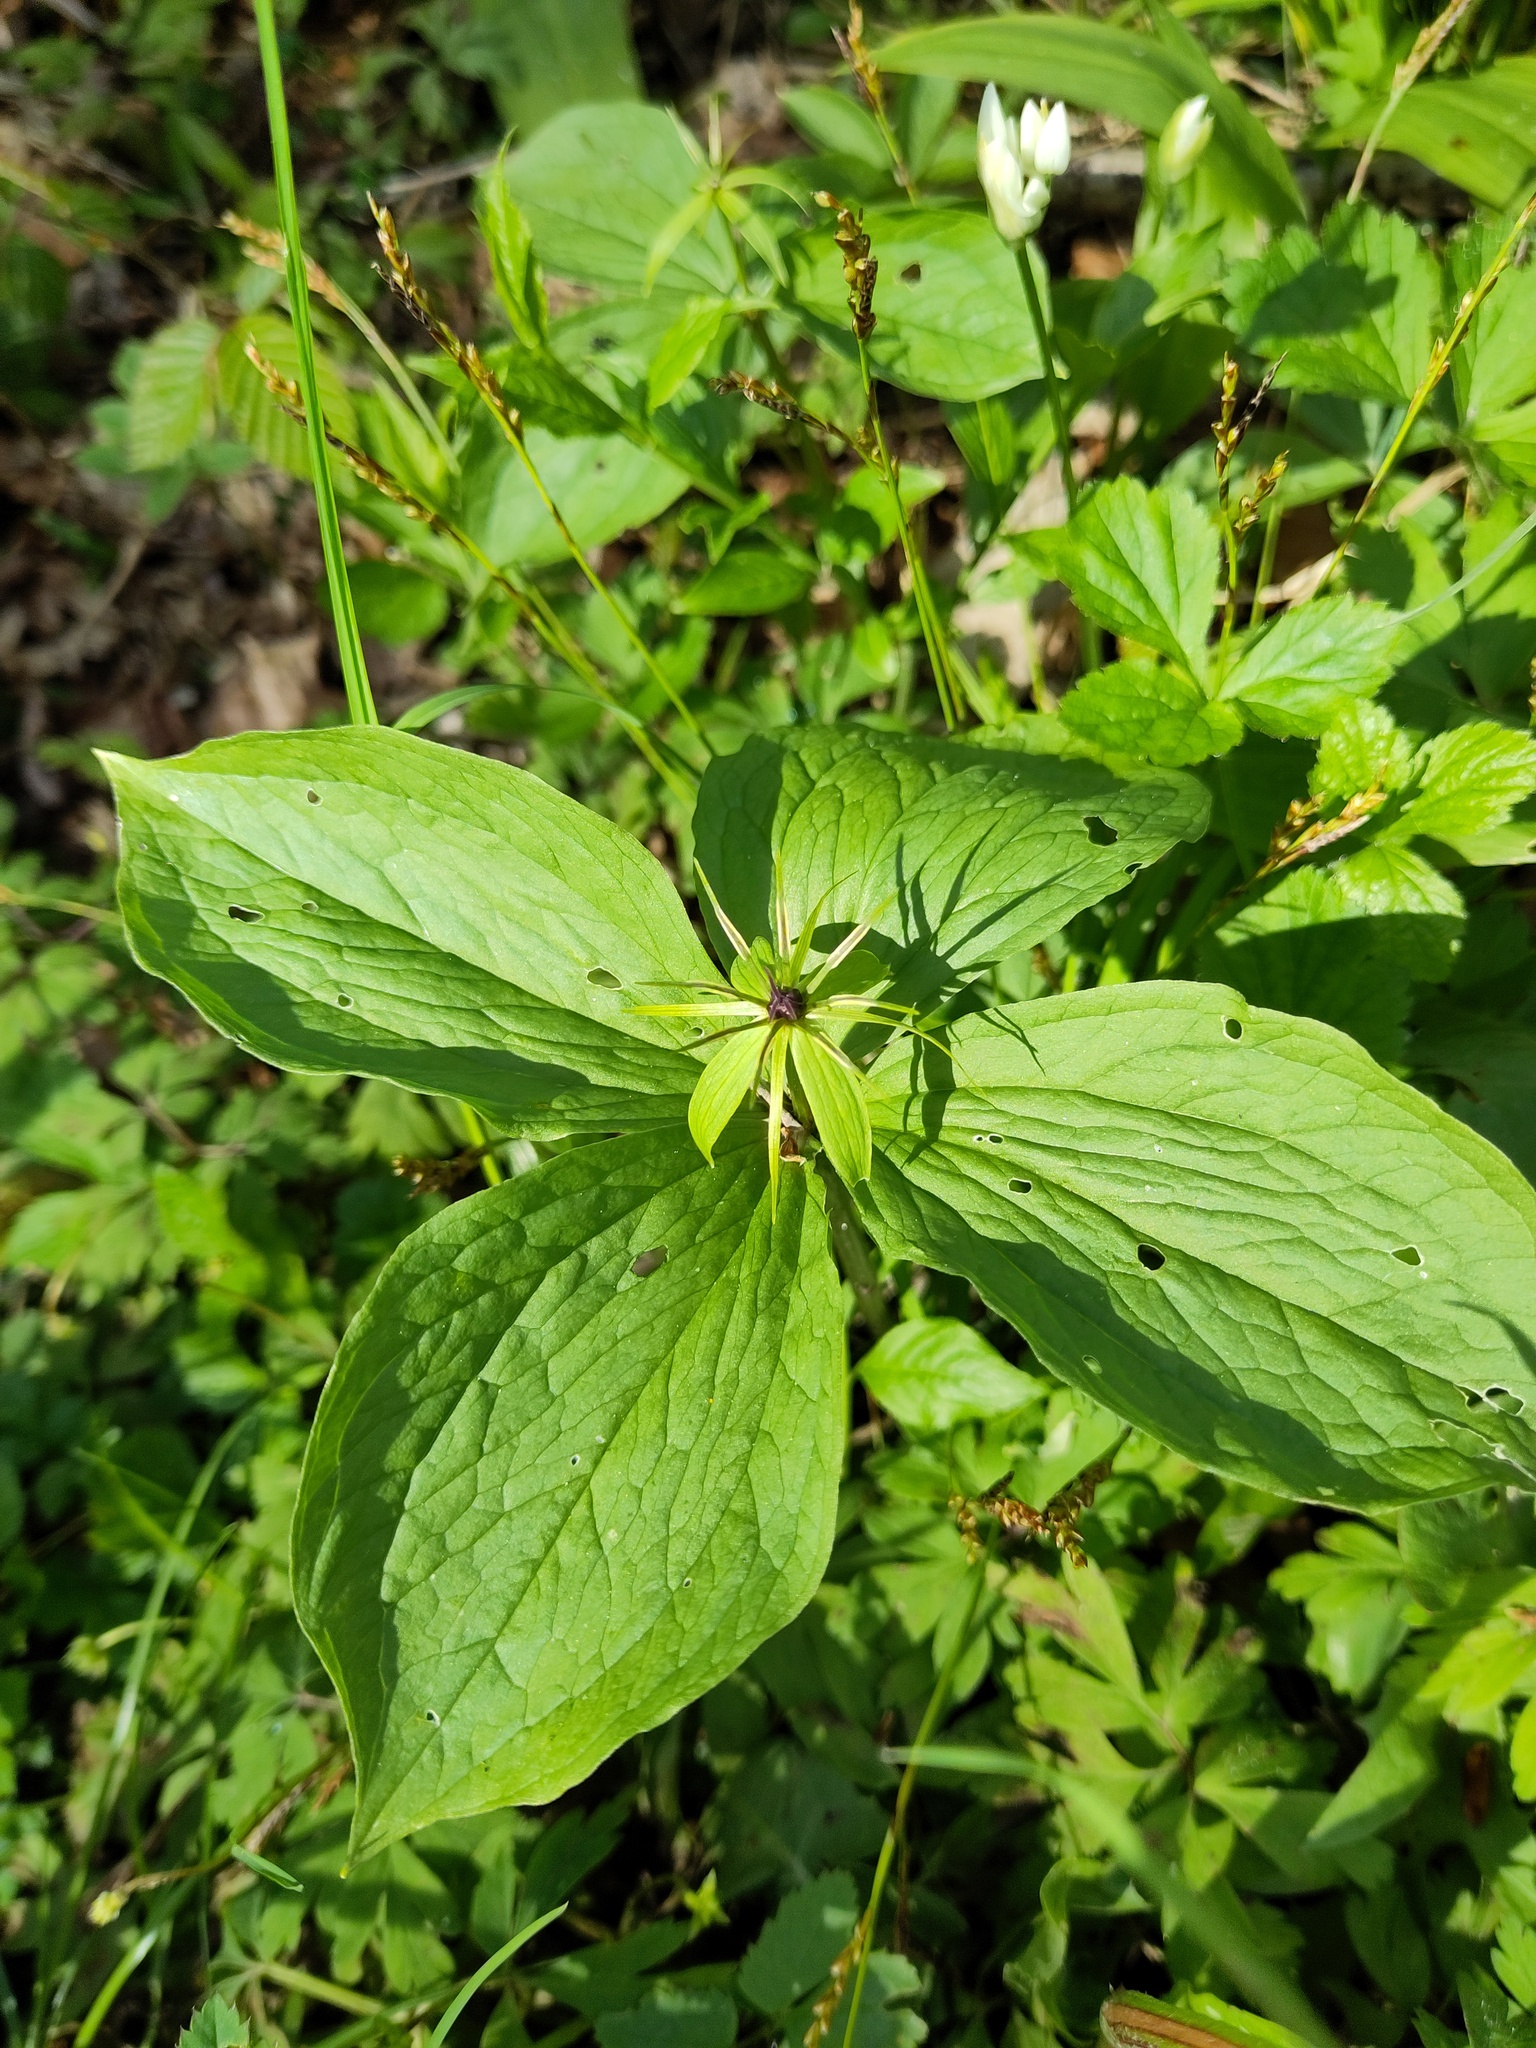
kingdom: Plantae
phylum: Tracheophyta
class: Liliopsida
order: Liliales
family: Melanthiaceae
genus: Paris
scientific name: Paris quadrifolia
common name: Herb-paris
